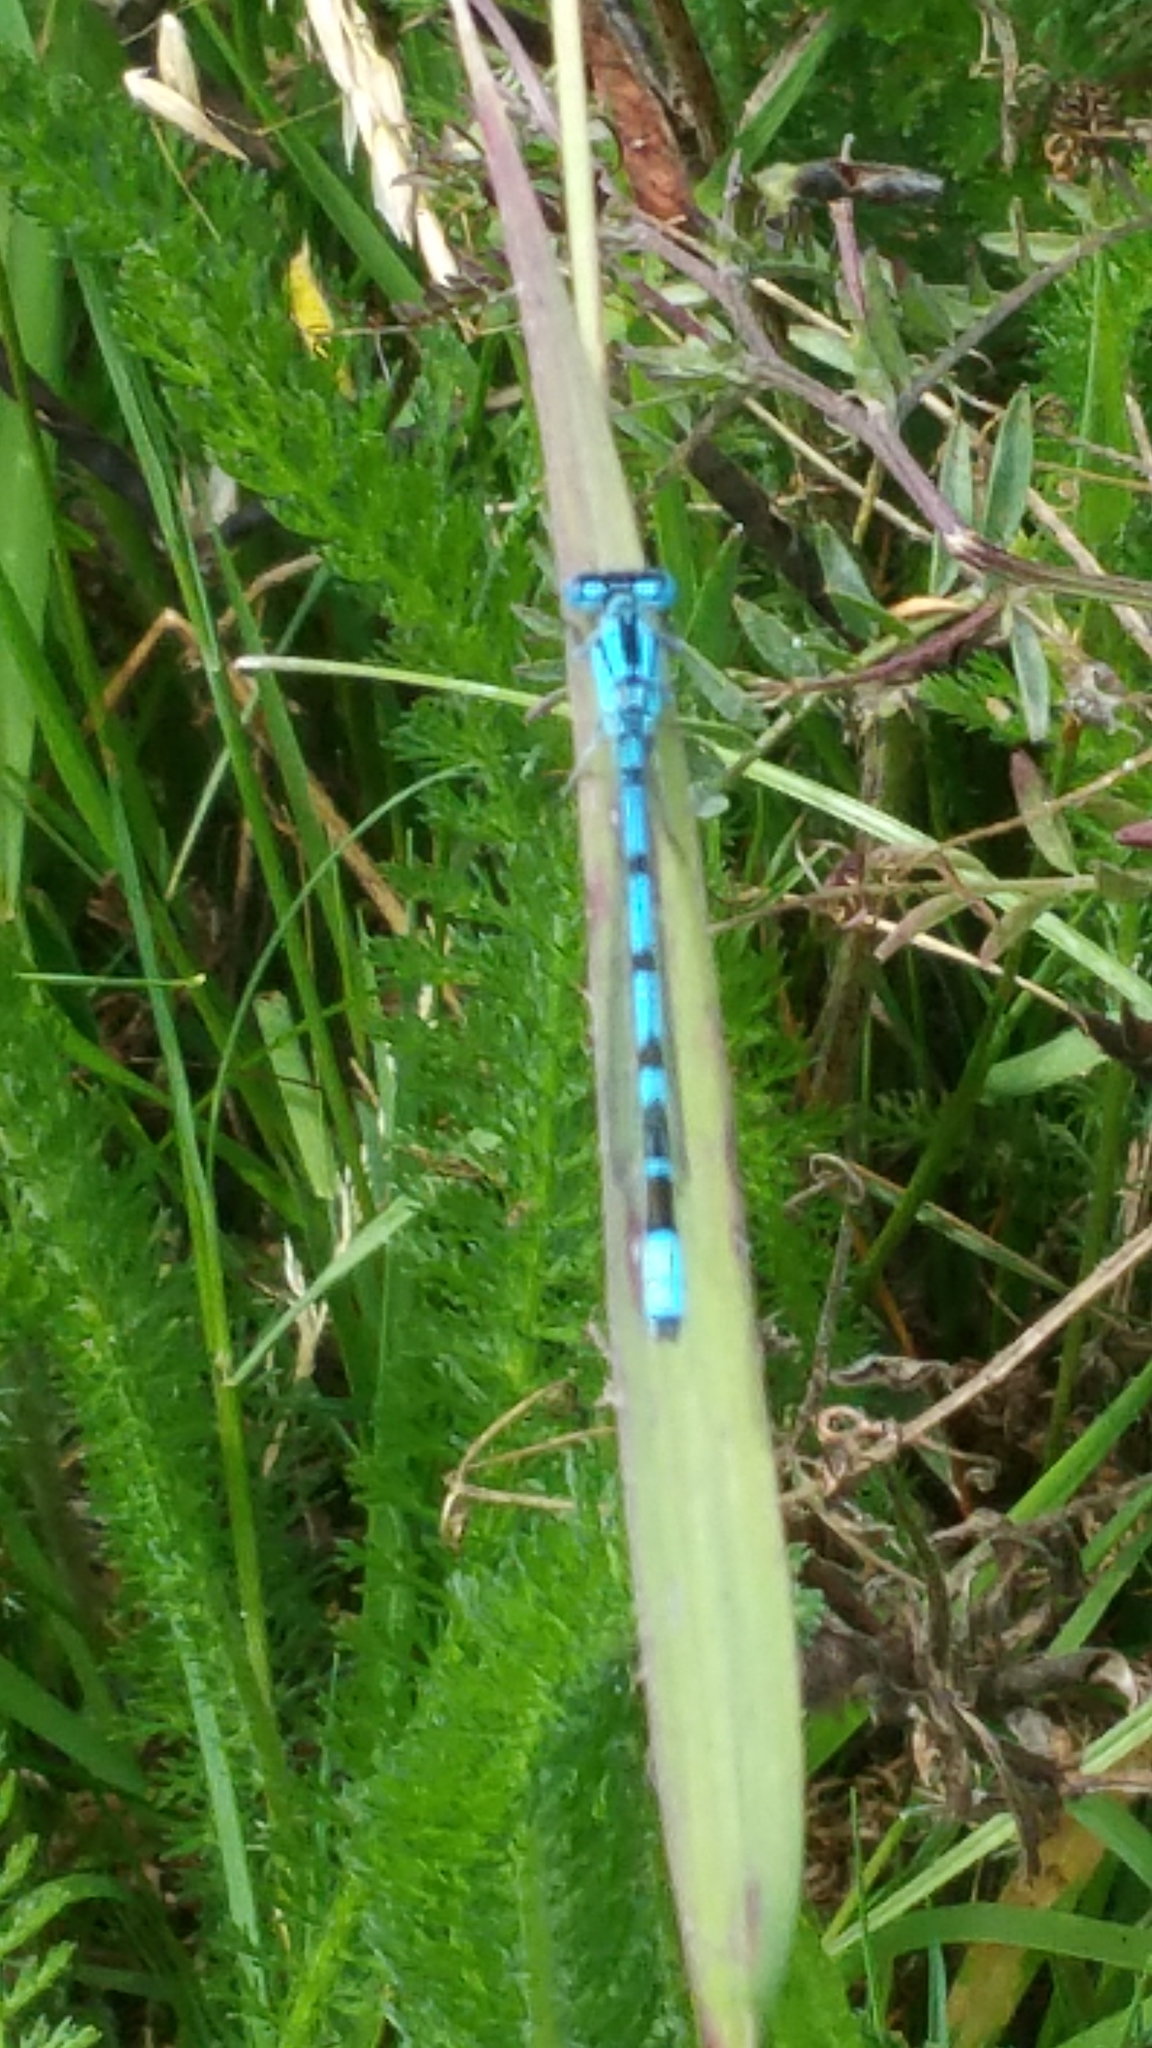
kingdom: Animalia
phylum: Arthropoda
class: Insecta
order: Odonata
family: Coenagrionidae
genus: Enallagma
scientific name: Enallagma cyathigerum
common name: Common blue damselfly
